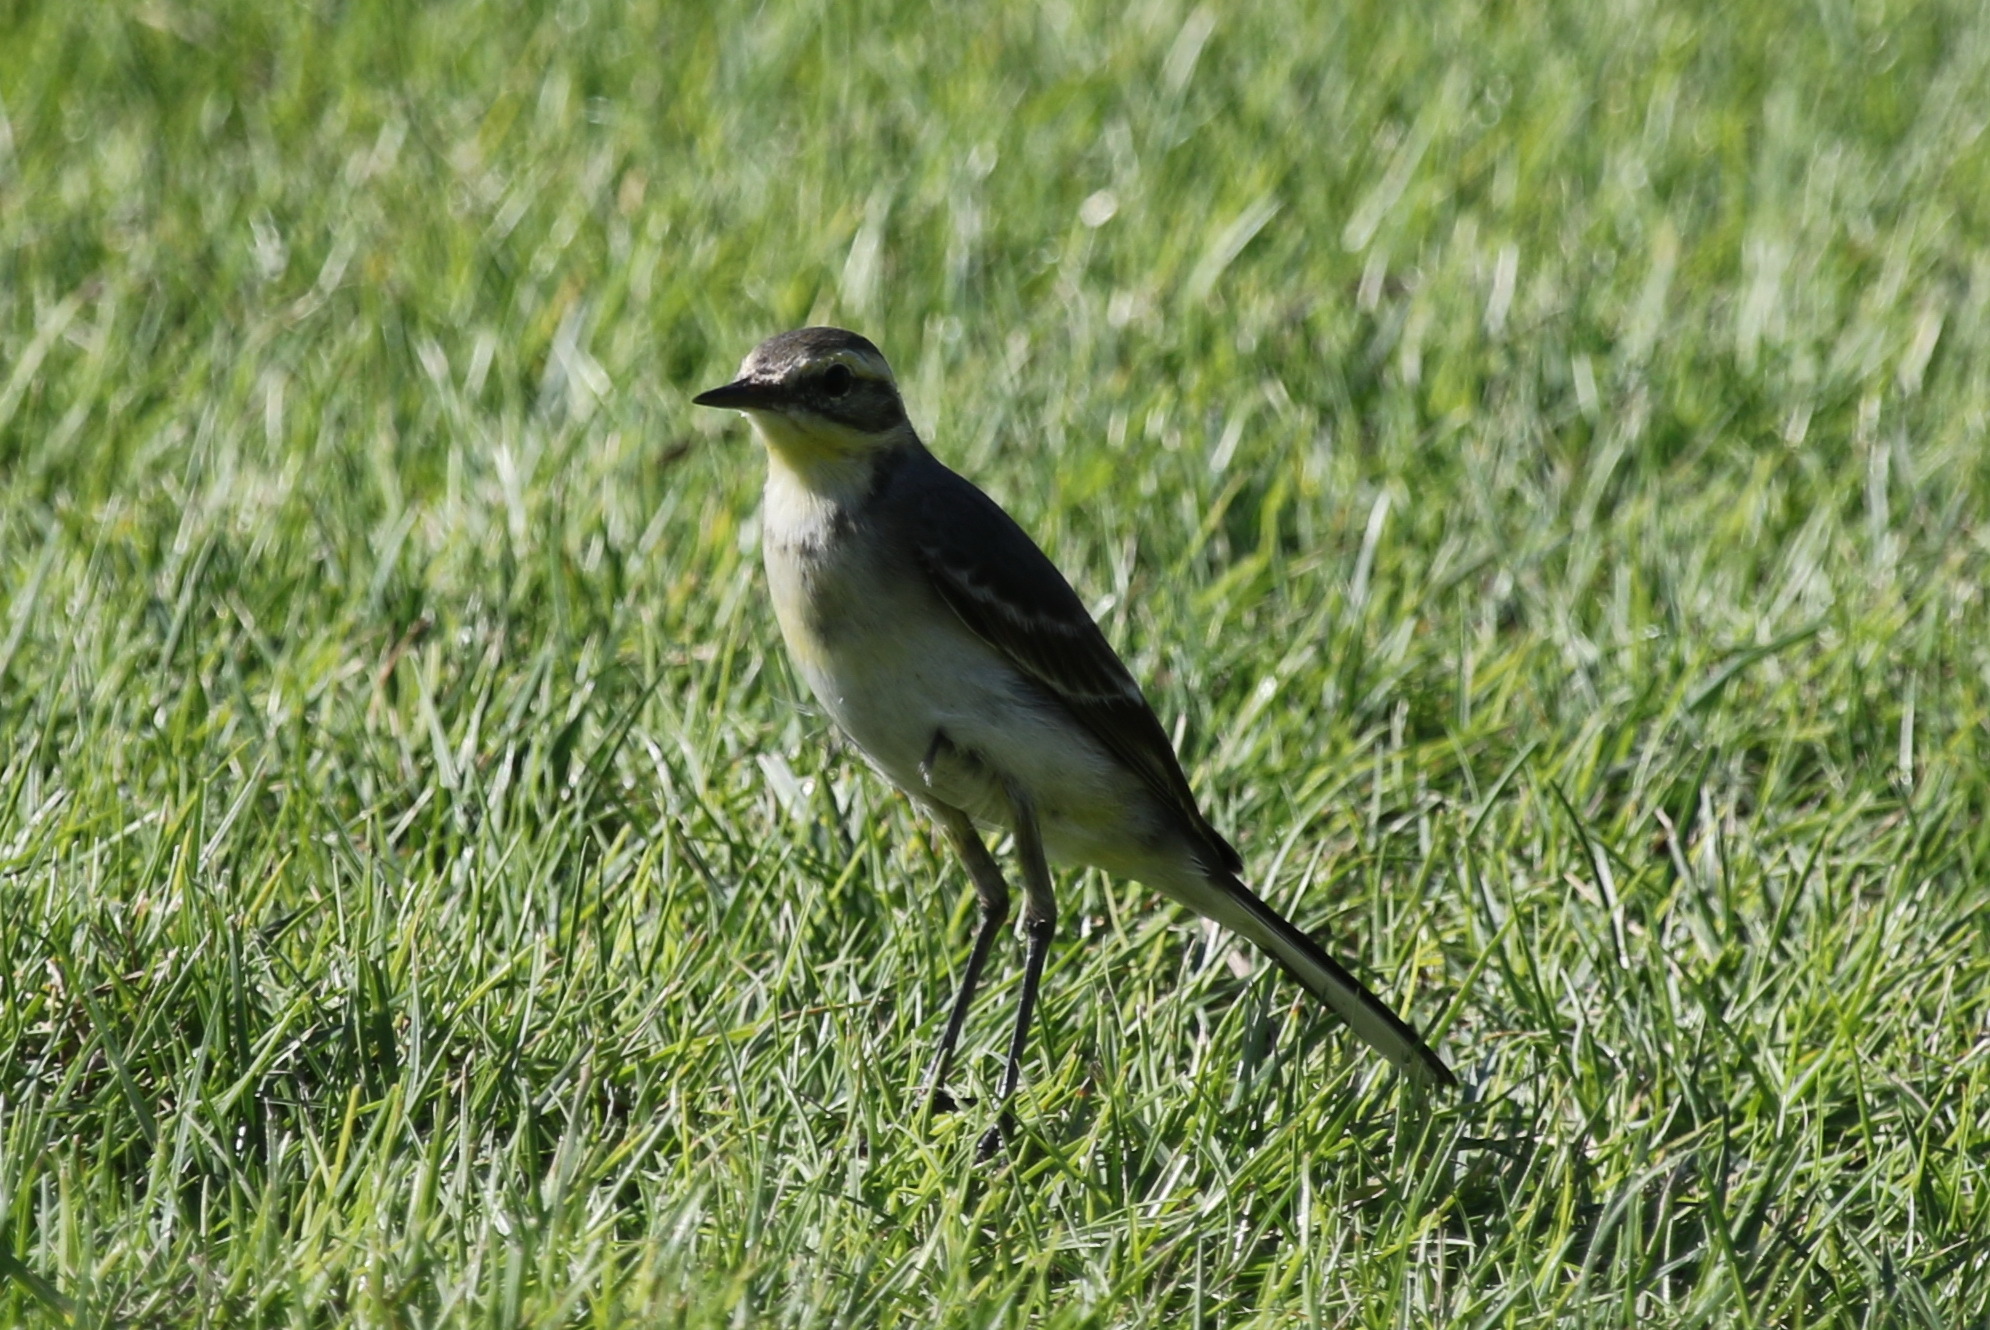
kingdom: Animalia
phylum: Chordata
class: Aves
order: Passeriformes
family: Motacillidae
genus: Motacilla
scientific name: Motacilla citreola
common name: Citrine wagtail
